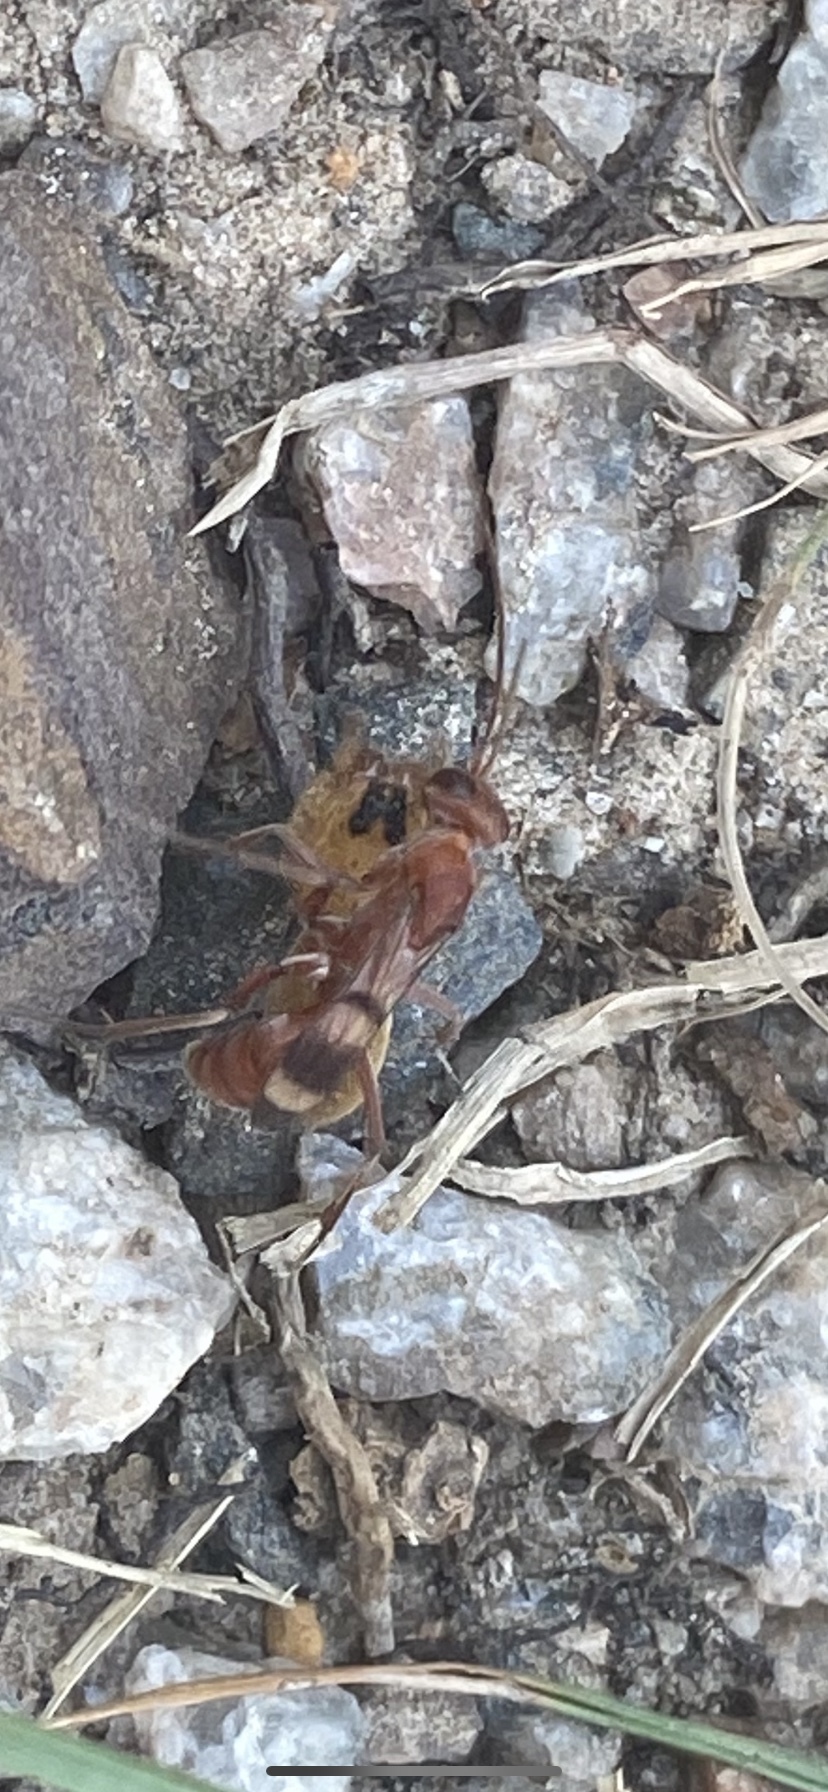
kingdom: Animalia
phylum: Arthropoda
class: Insecta
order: Hymenoptera
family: Pompilidae
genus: Ageniella
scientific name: Ageniella accepta
